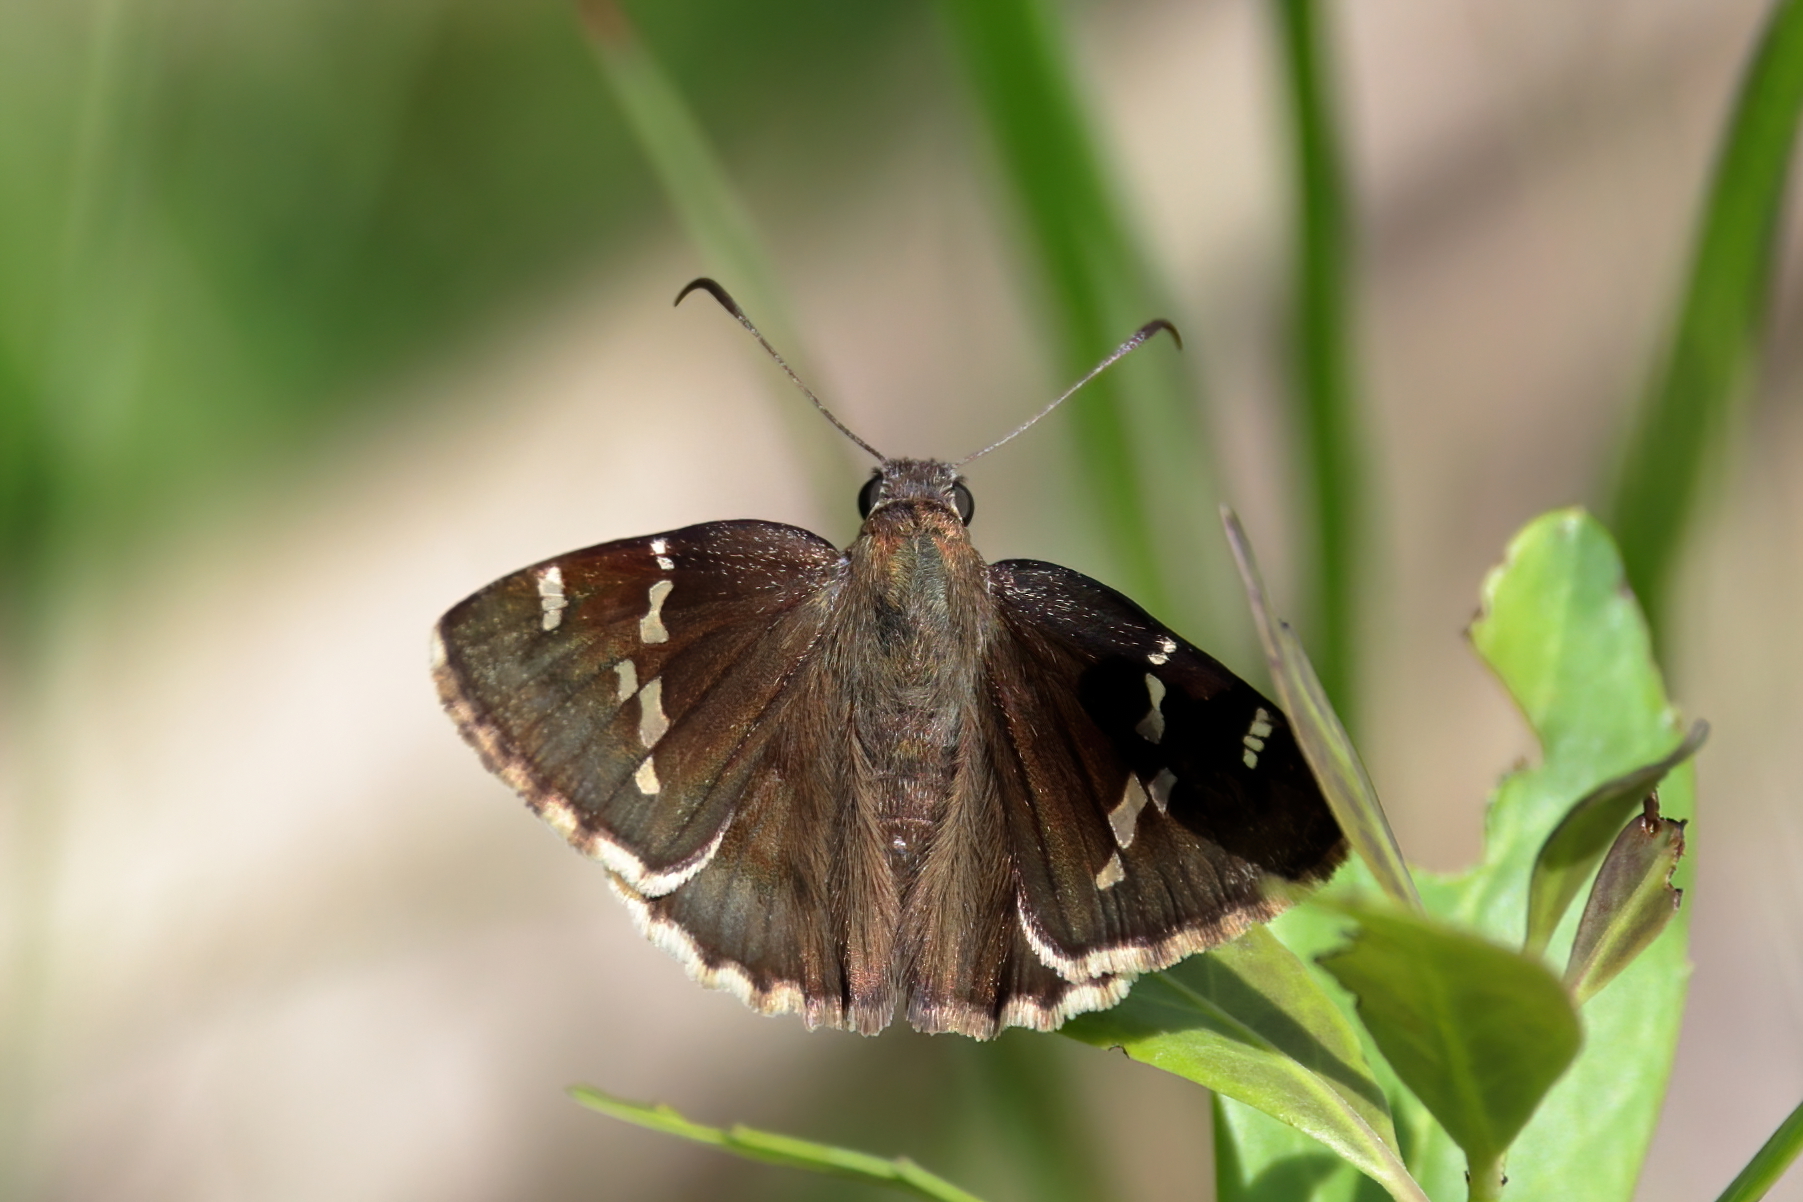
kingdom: Animalia
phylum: Arthropoda
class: Insecta
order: Lepidoptera
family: Hesperiidae
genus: Thorybes
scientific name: Thorybes daunus
